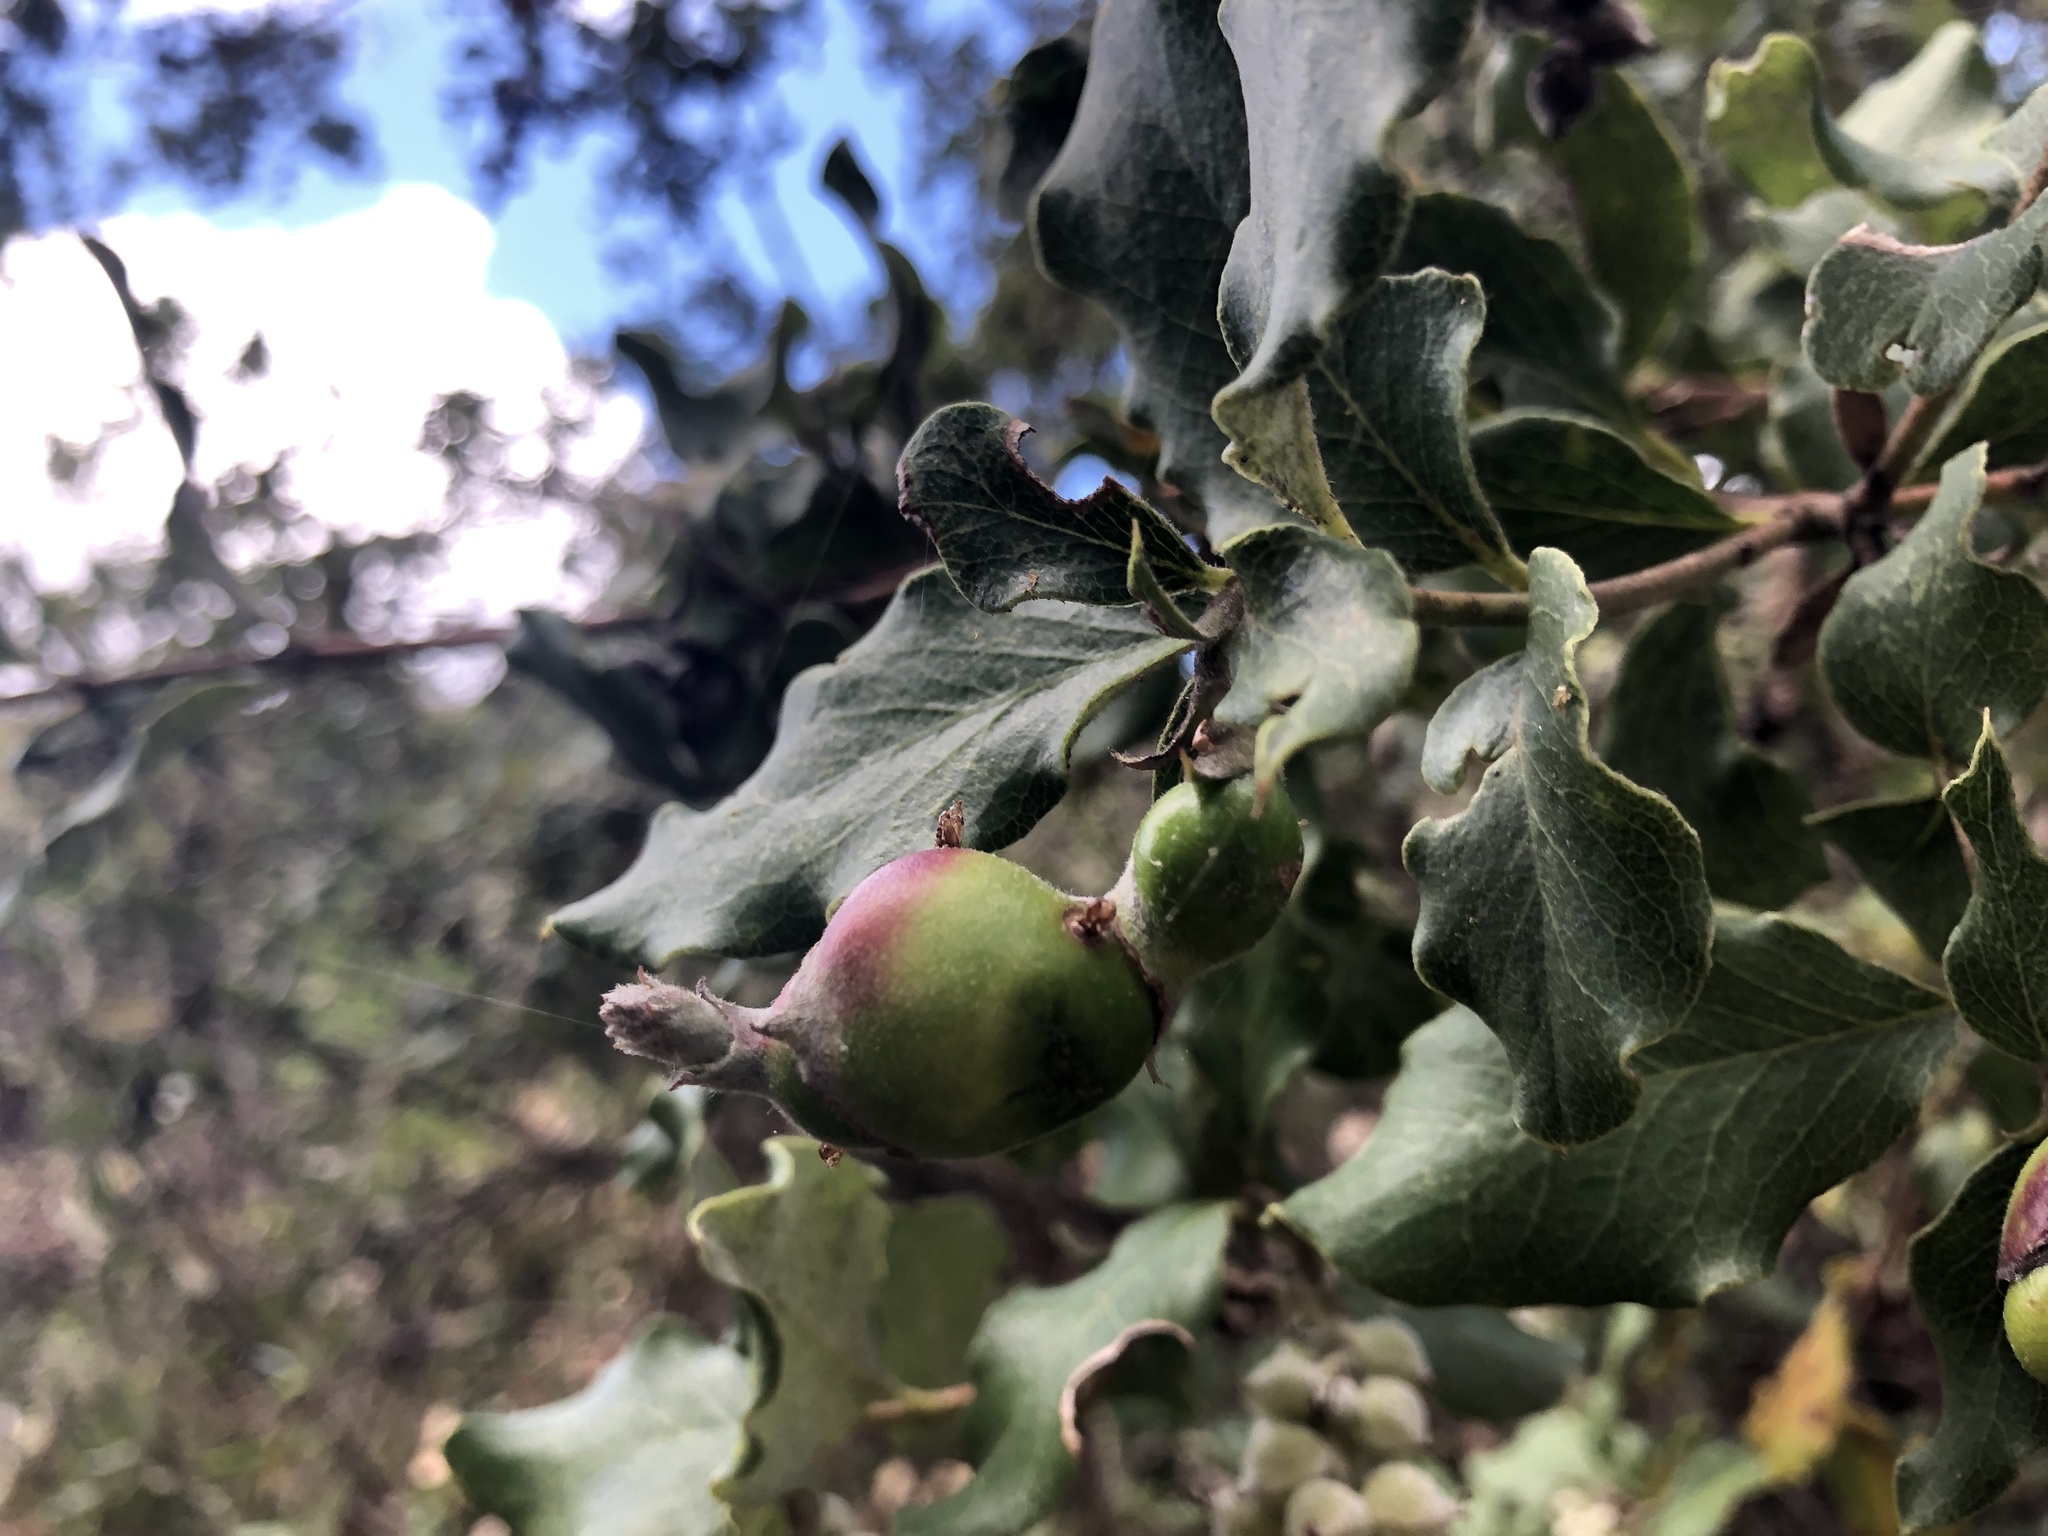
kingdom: Animalia
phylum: Arthropoda
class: Insecta
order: Diptera
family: Cecidomyiidae
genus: Asphondylia
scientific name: Asphondylia garryae
